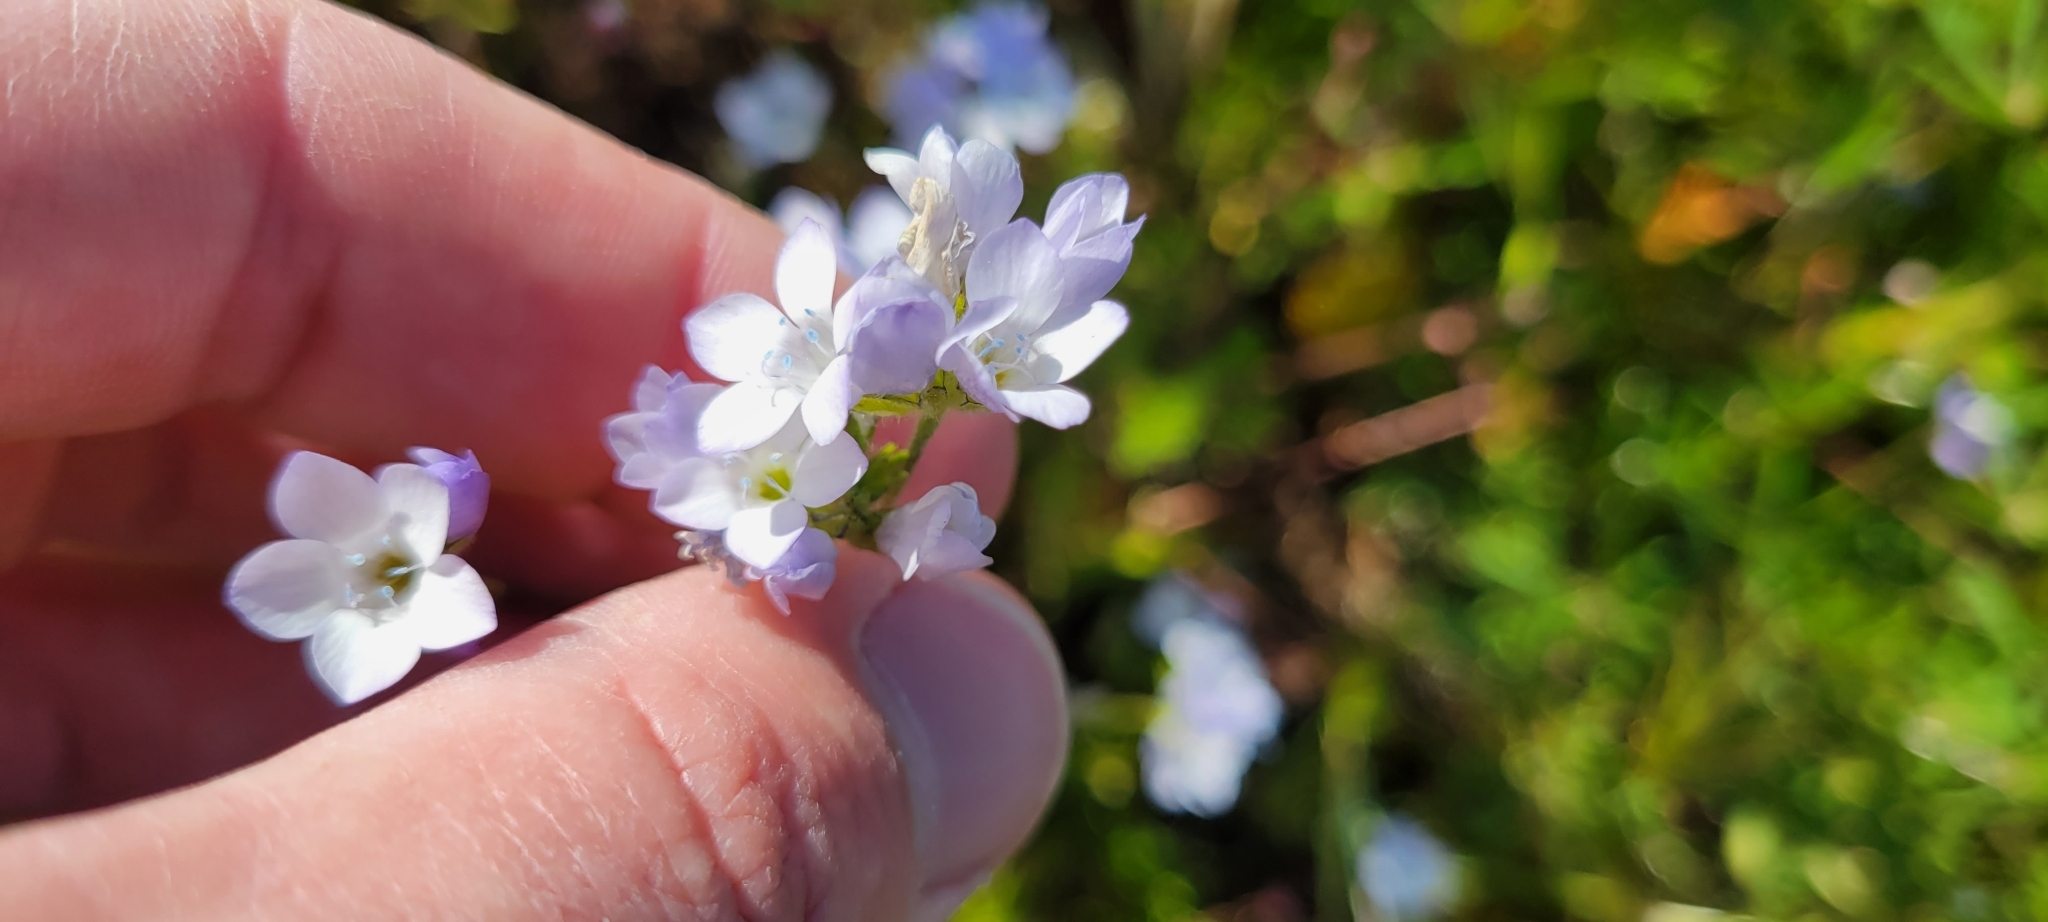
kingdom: Plantae
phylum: Tracheophyta
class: Magnoliopsida
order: Ericales
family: Polemoniaceae
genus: Gilia
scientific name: Gilia angelensis
